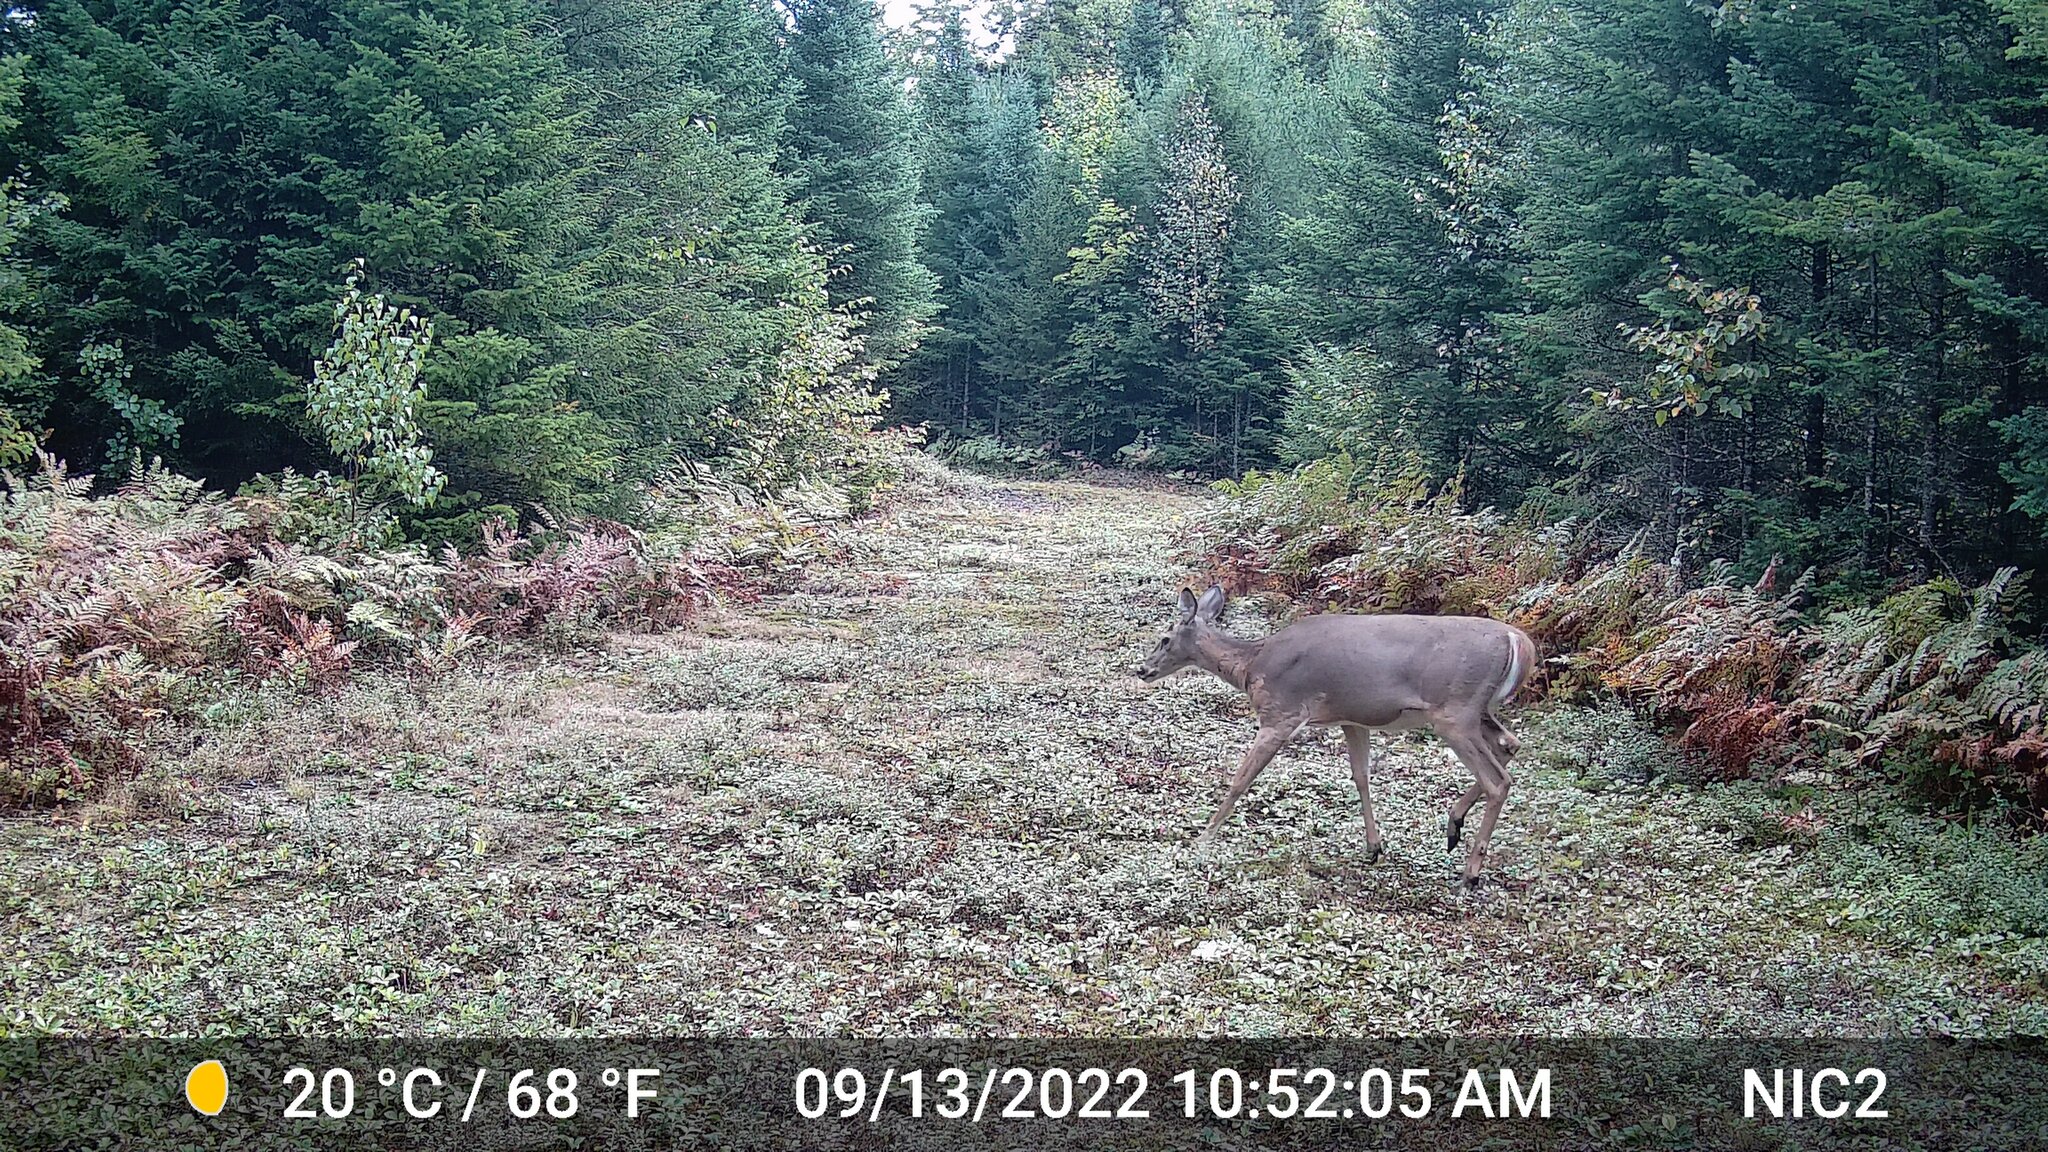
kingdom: Animalia
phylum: Chordata
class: Mammalia
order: Artiodactyla
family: Cervidae
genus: Odocoileus
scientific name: Odocoileus virginianus
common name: White-tailed deer
